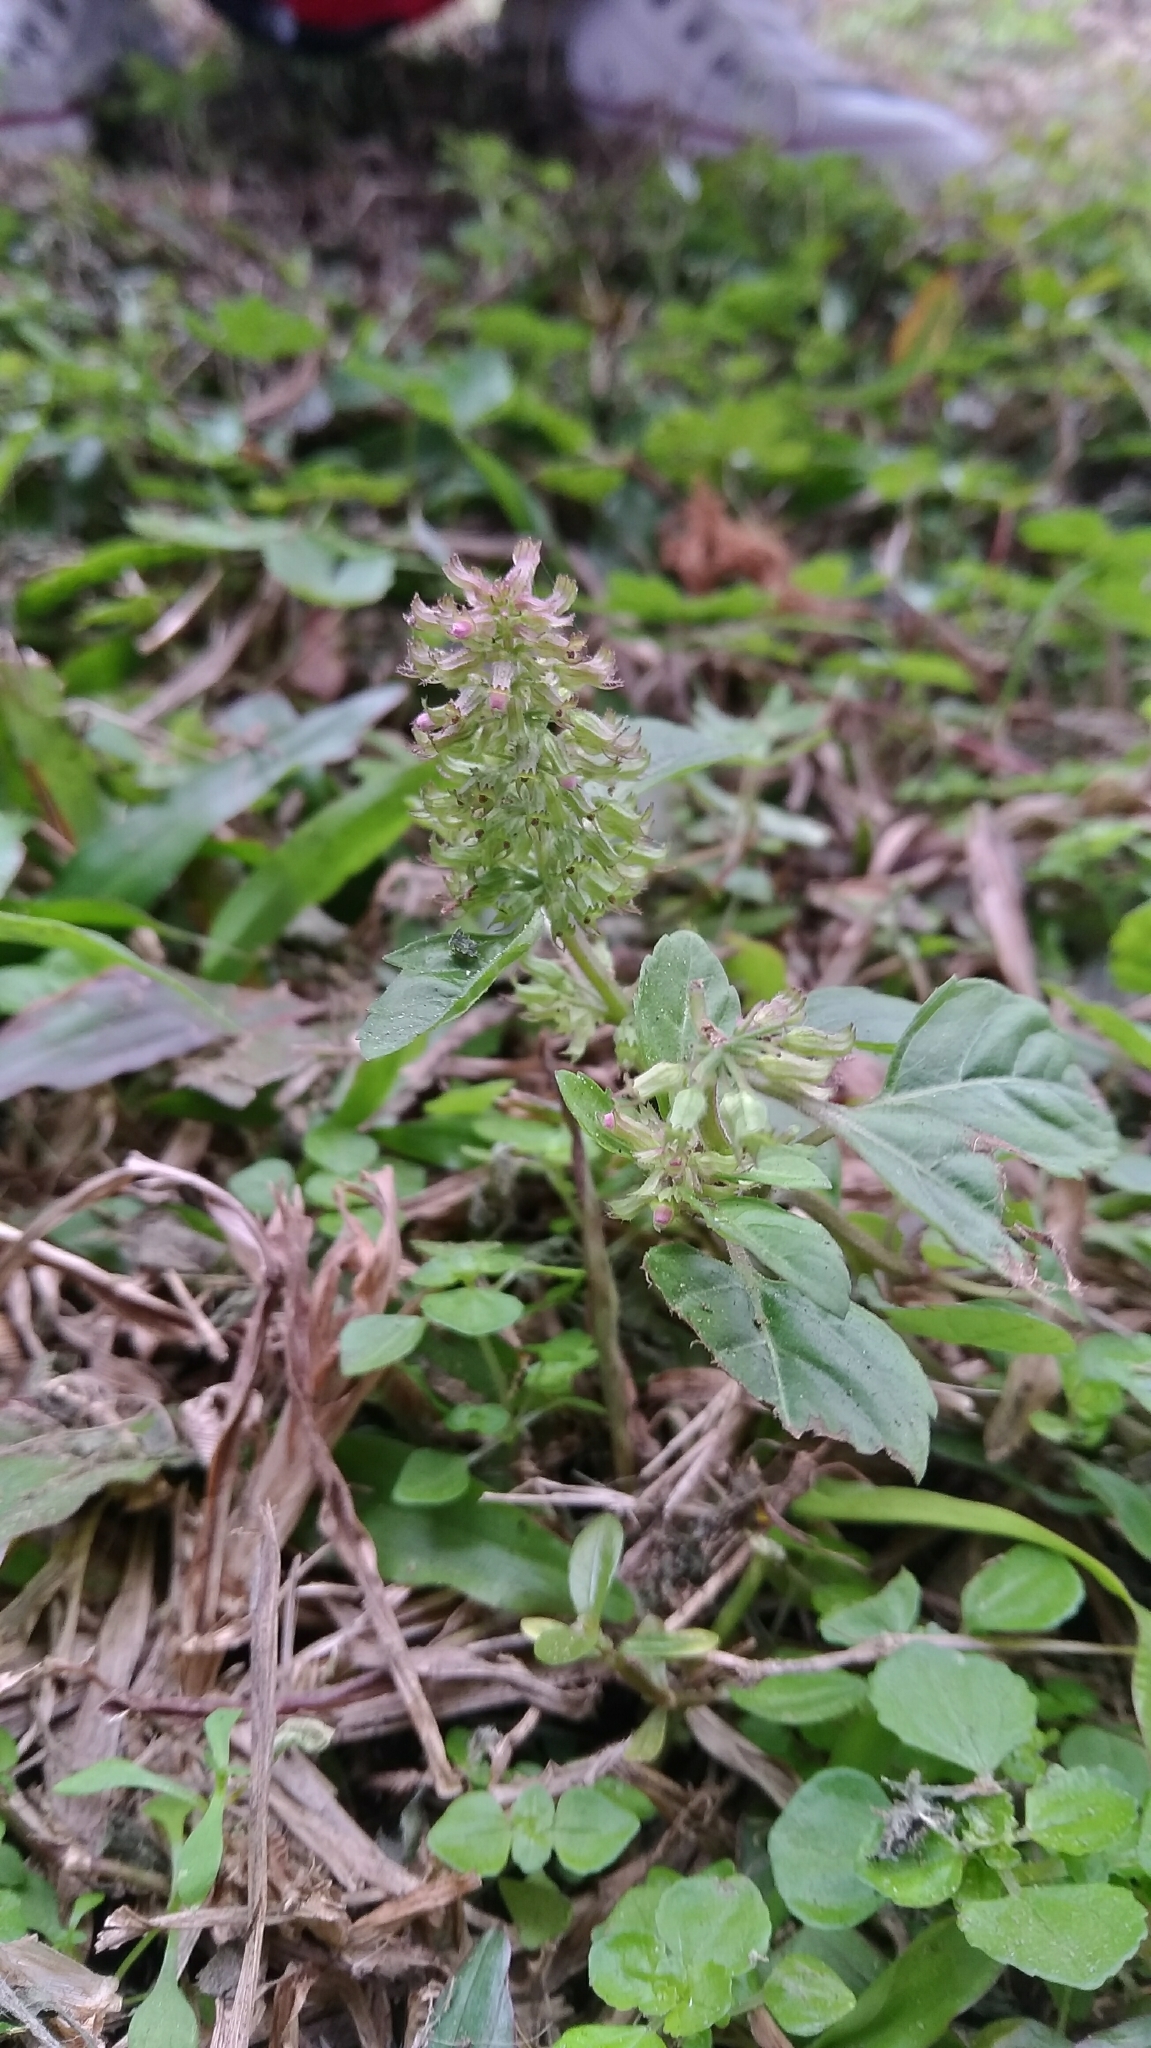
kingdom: Plantae
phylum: Tracheophyta
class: Magnoliopsida
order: Lamiales
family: Lamiaceae
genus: Clinopodium
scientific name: Clinopodium gracile
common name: Slender wild basil
